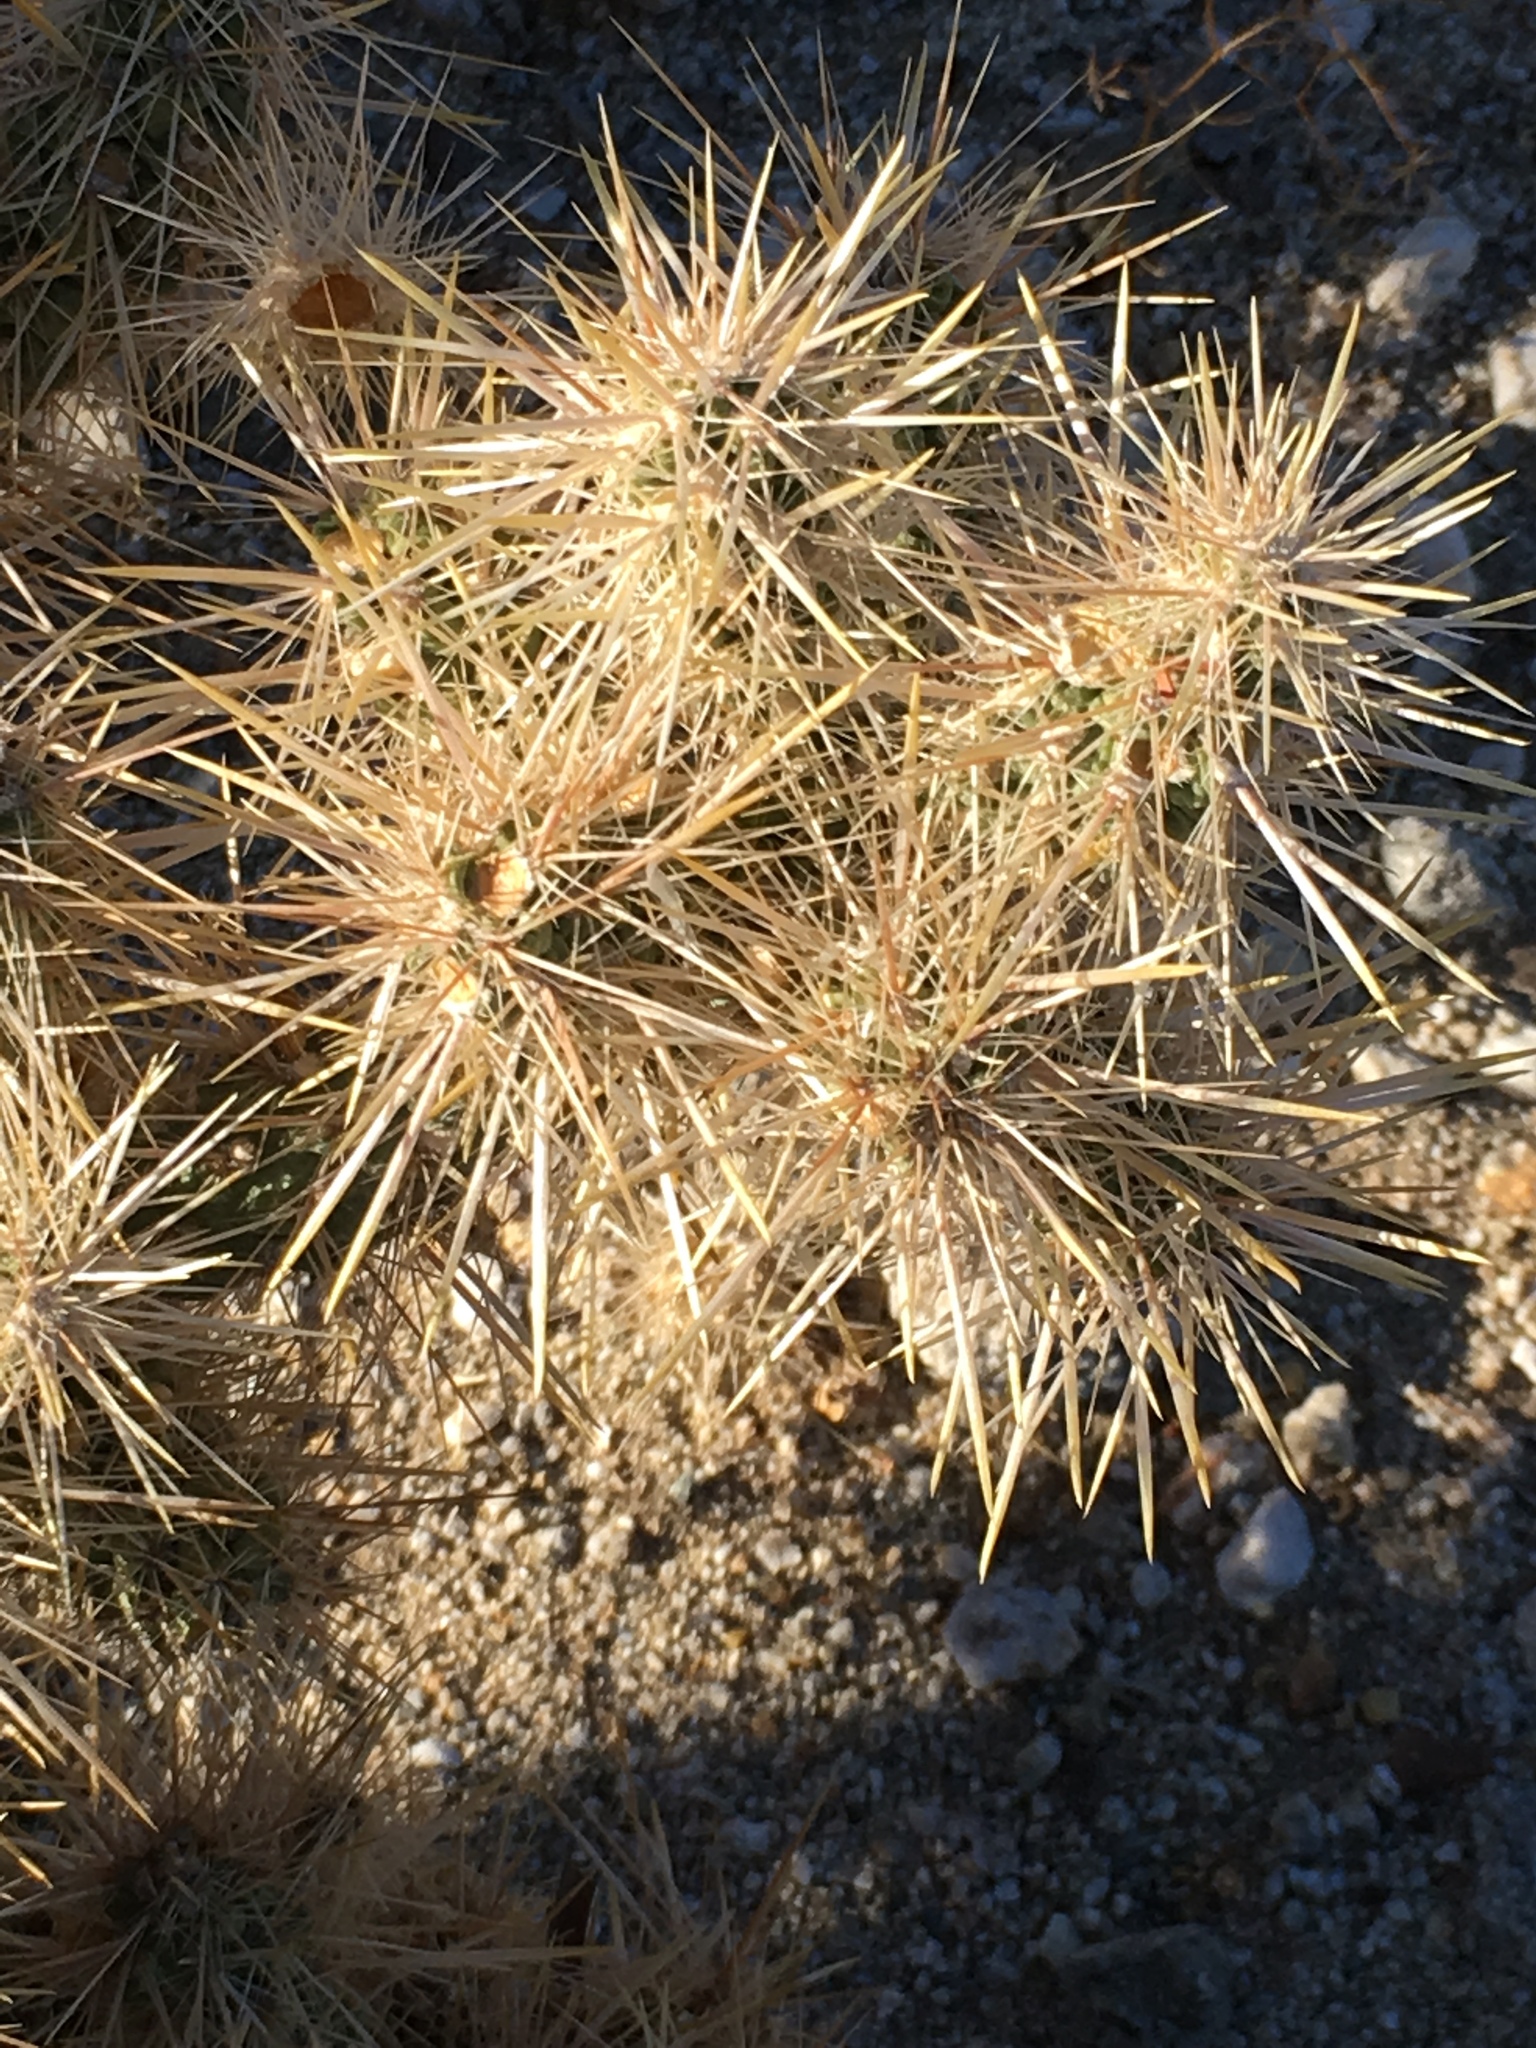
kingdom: Plantae
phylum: Tracheophyta
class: Magnoliopsida
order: Caryophyllales
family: Cactaceae
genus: Cylindropuntia
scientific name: Cylindropuntia echinocarpa
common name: Ground cholla
